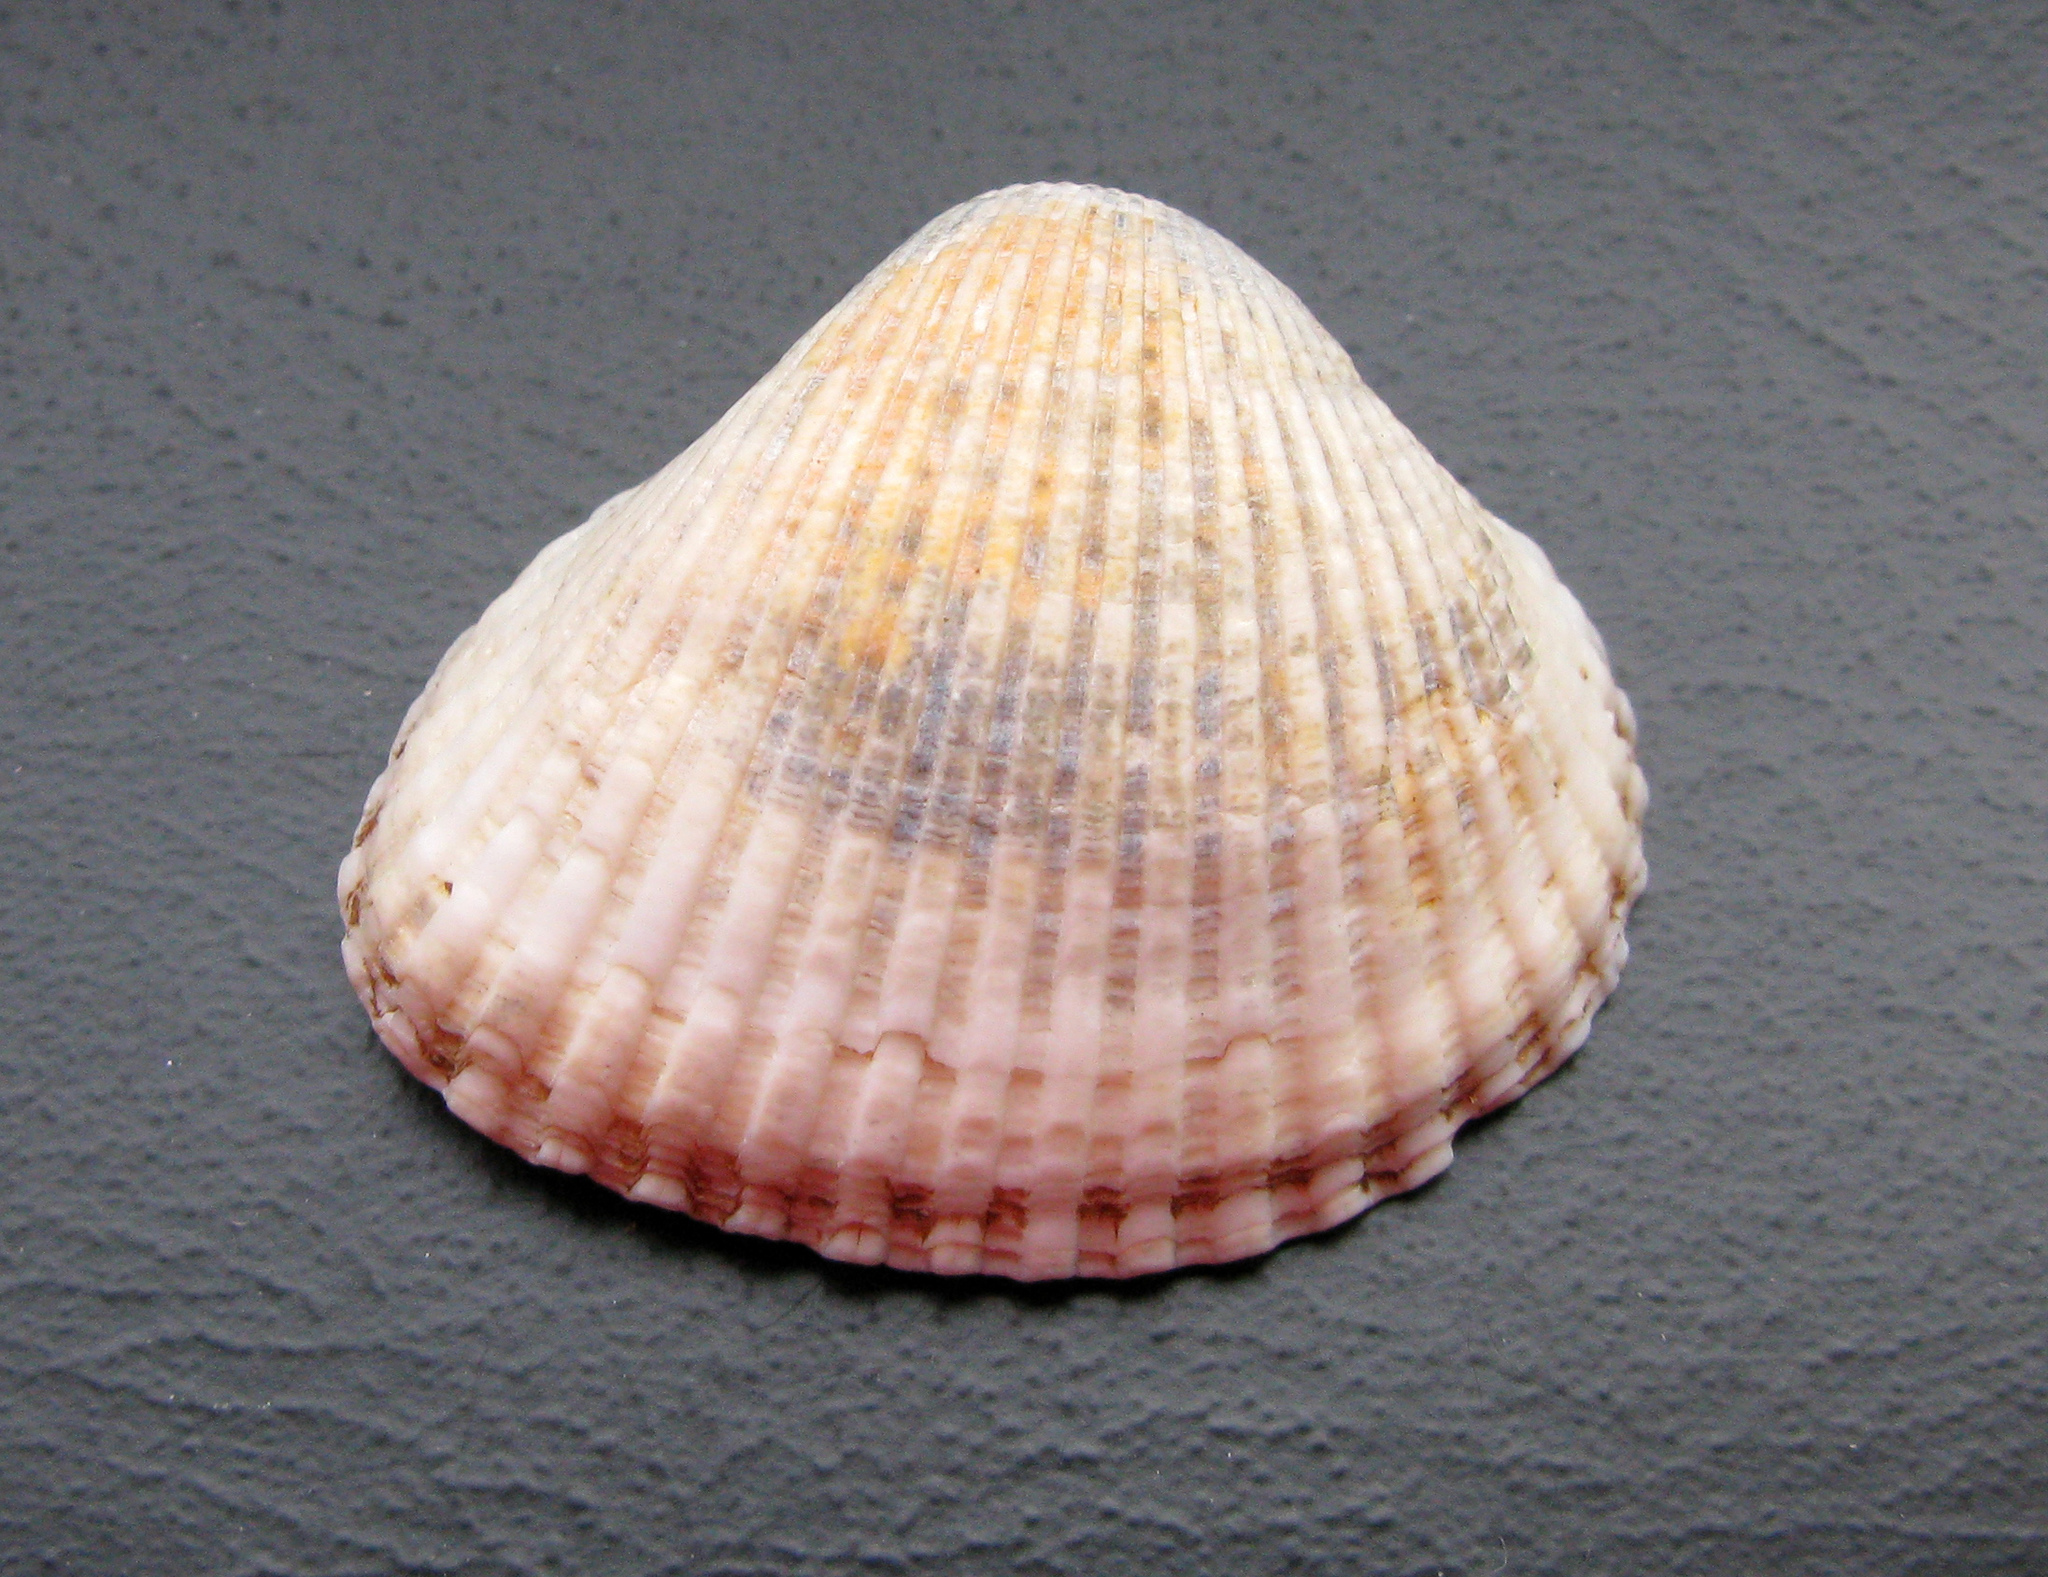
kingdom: Animalia
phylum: Mollusca
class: Bivalvia
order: Cardiida
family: Cardiidae
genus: Cerastoderma
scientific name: Cerastoderma glaucum
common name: Lagoon cockle
